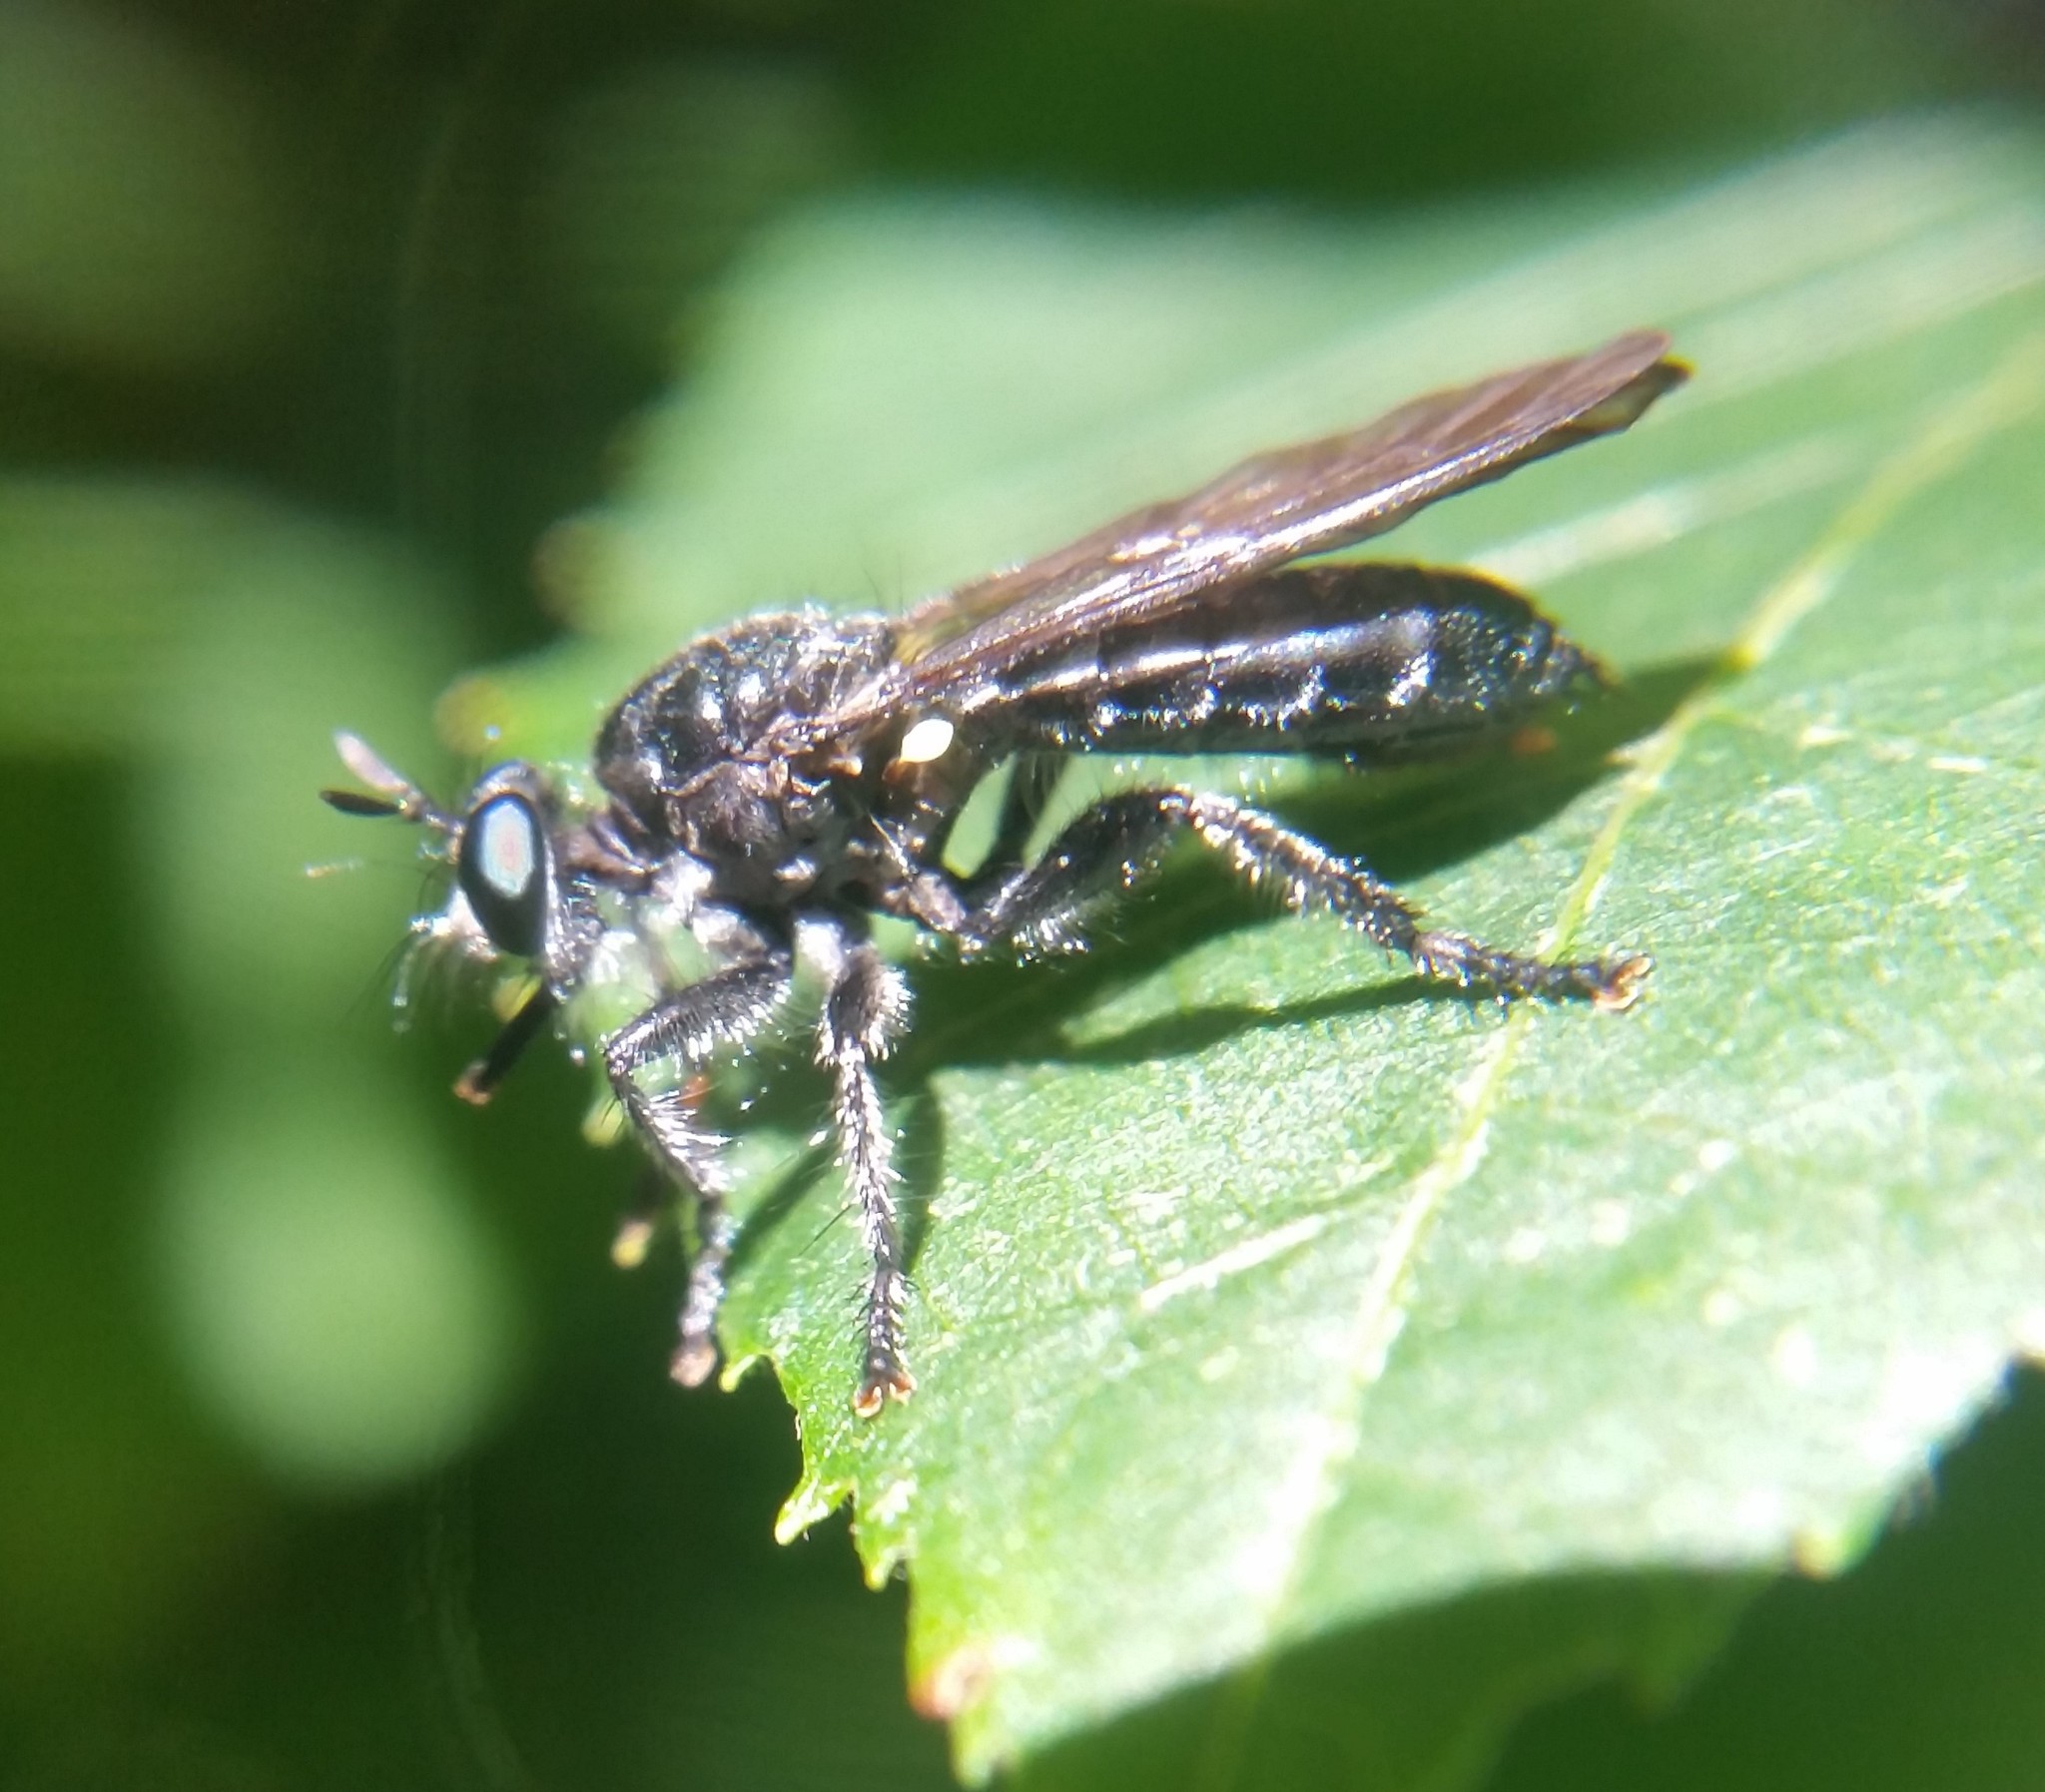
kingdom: Animalia
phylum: Arthropoda
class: Insecta
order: Diptera
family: Asilidae
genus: Laphria
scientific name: Laphria
